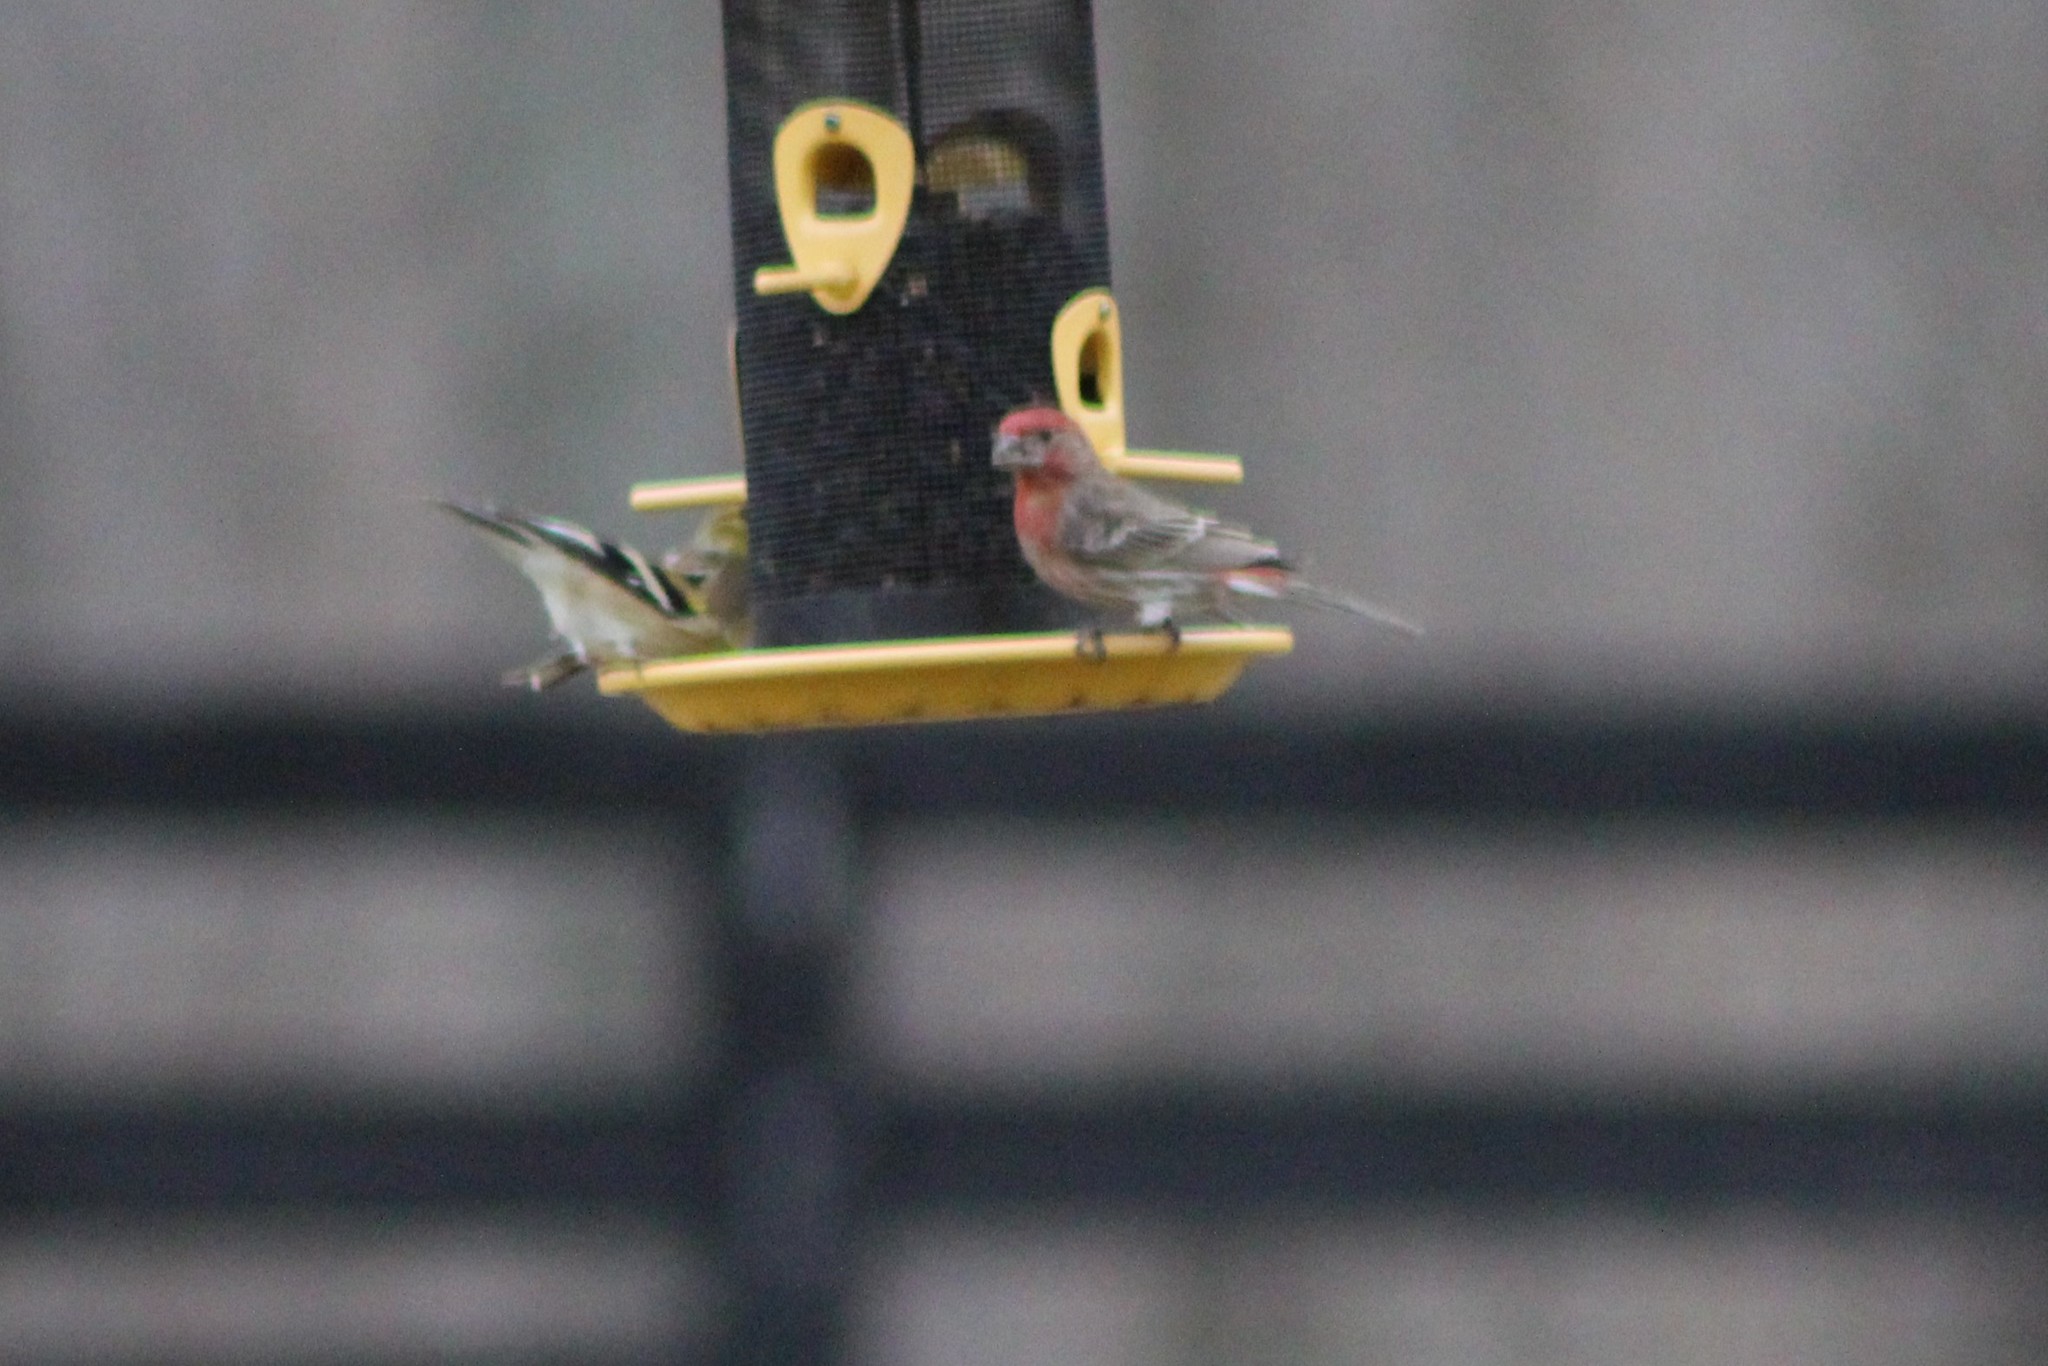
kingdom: Animalia
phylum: Chordata
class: Aves
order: Passeriformes
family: Fringillidae
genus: Haemorhous
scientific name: Haemorhous mexicanus
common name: House finch
